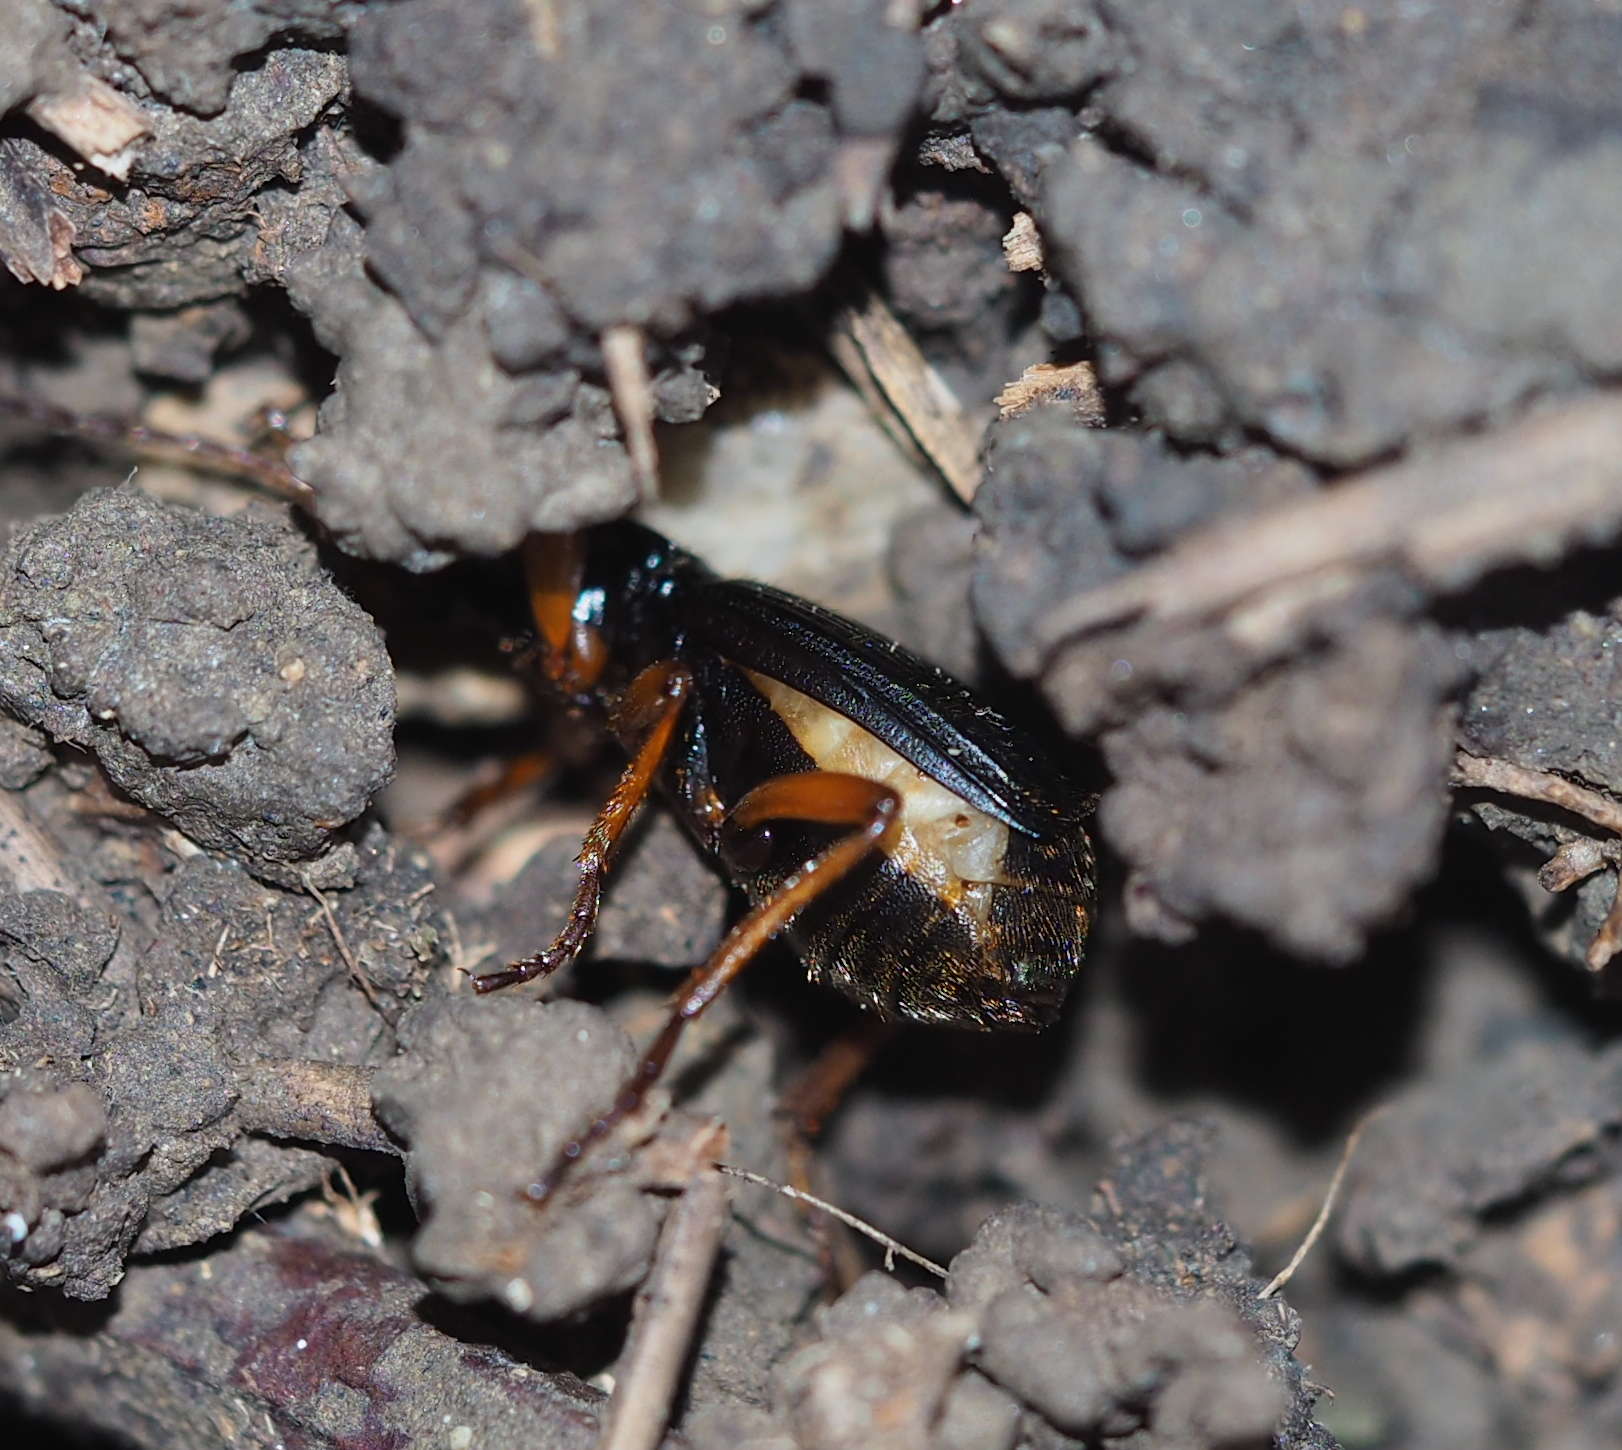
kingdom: Animalia
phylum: Arthropoda
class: Insecta
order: Coleoptera
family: Carabidae
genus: Aptinus
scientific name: Aptinus bombarda
